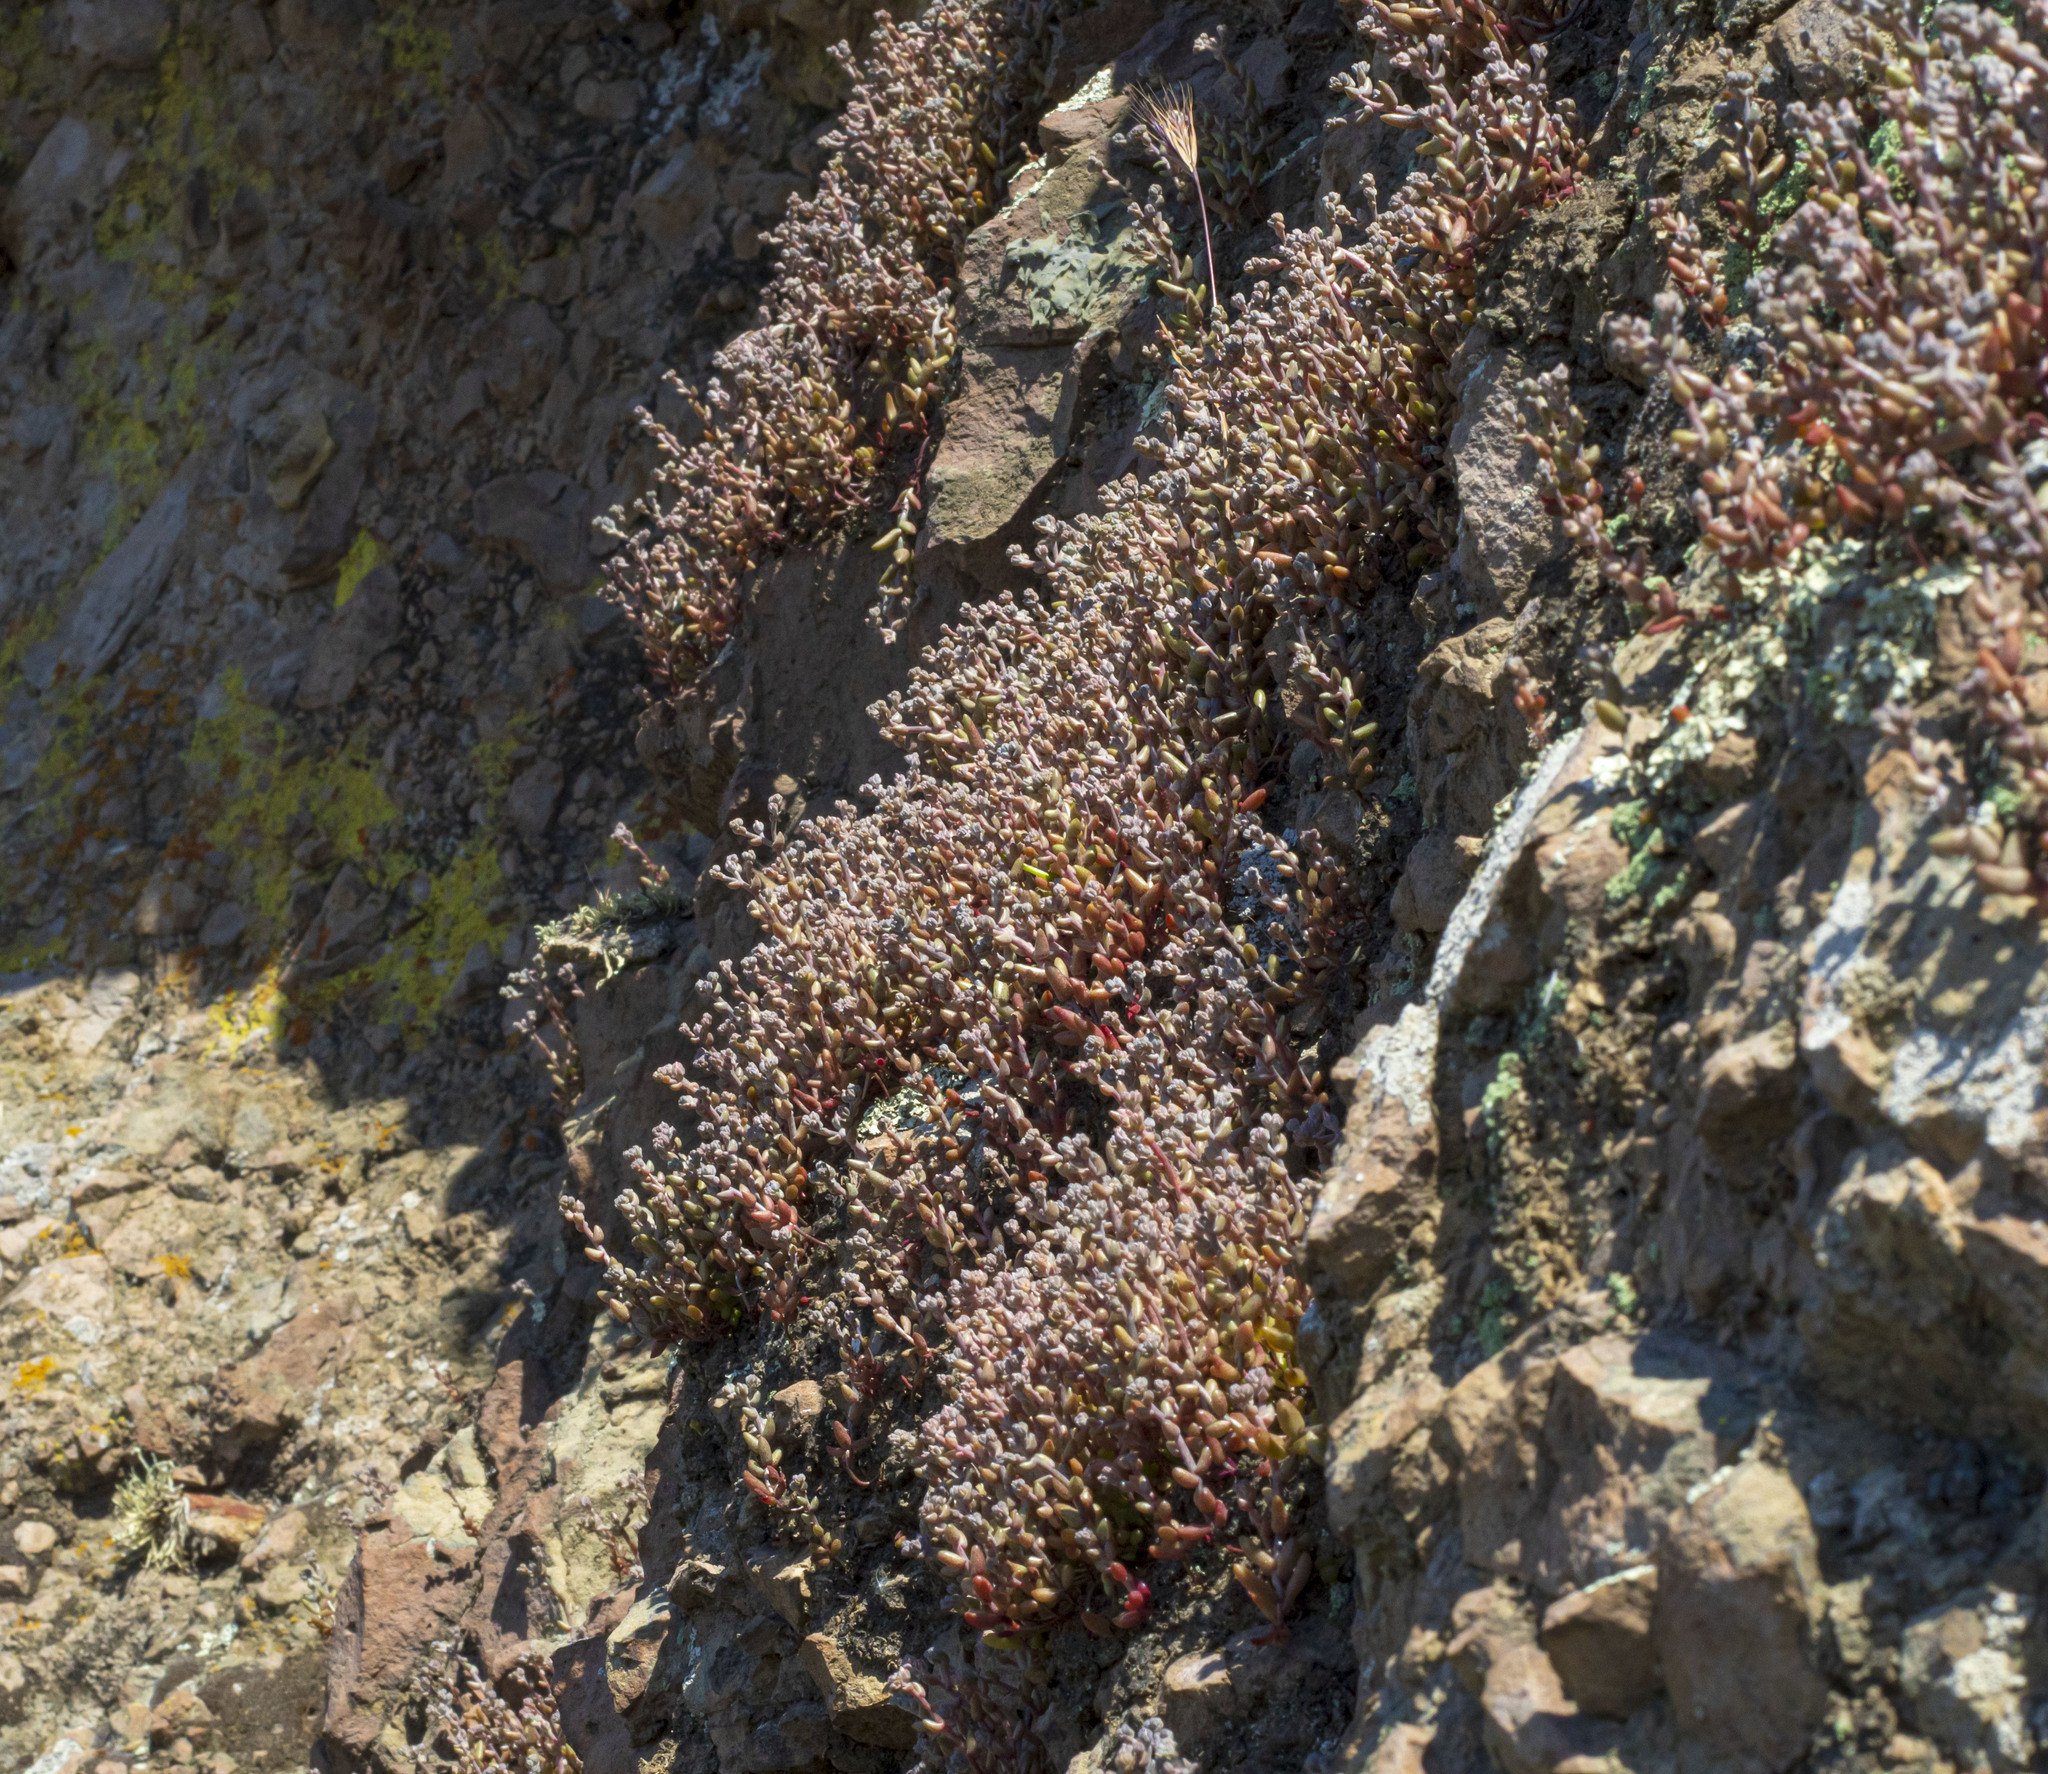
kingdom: Plantae
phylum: Tracheophyta
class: Magnoliopsida
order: Saxifragales
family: Crassulaceae
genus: Dudleya
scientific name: Dudleya blochmaniae
